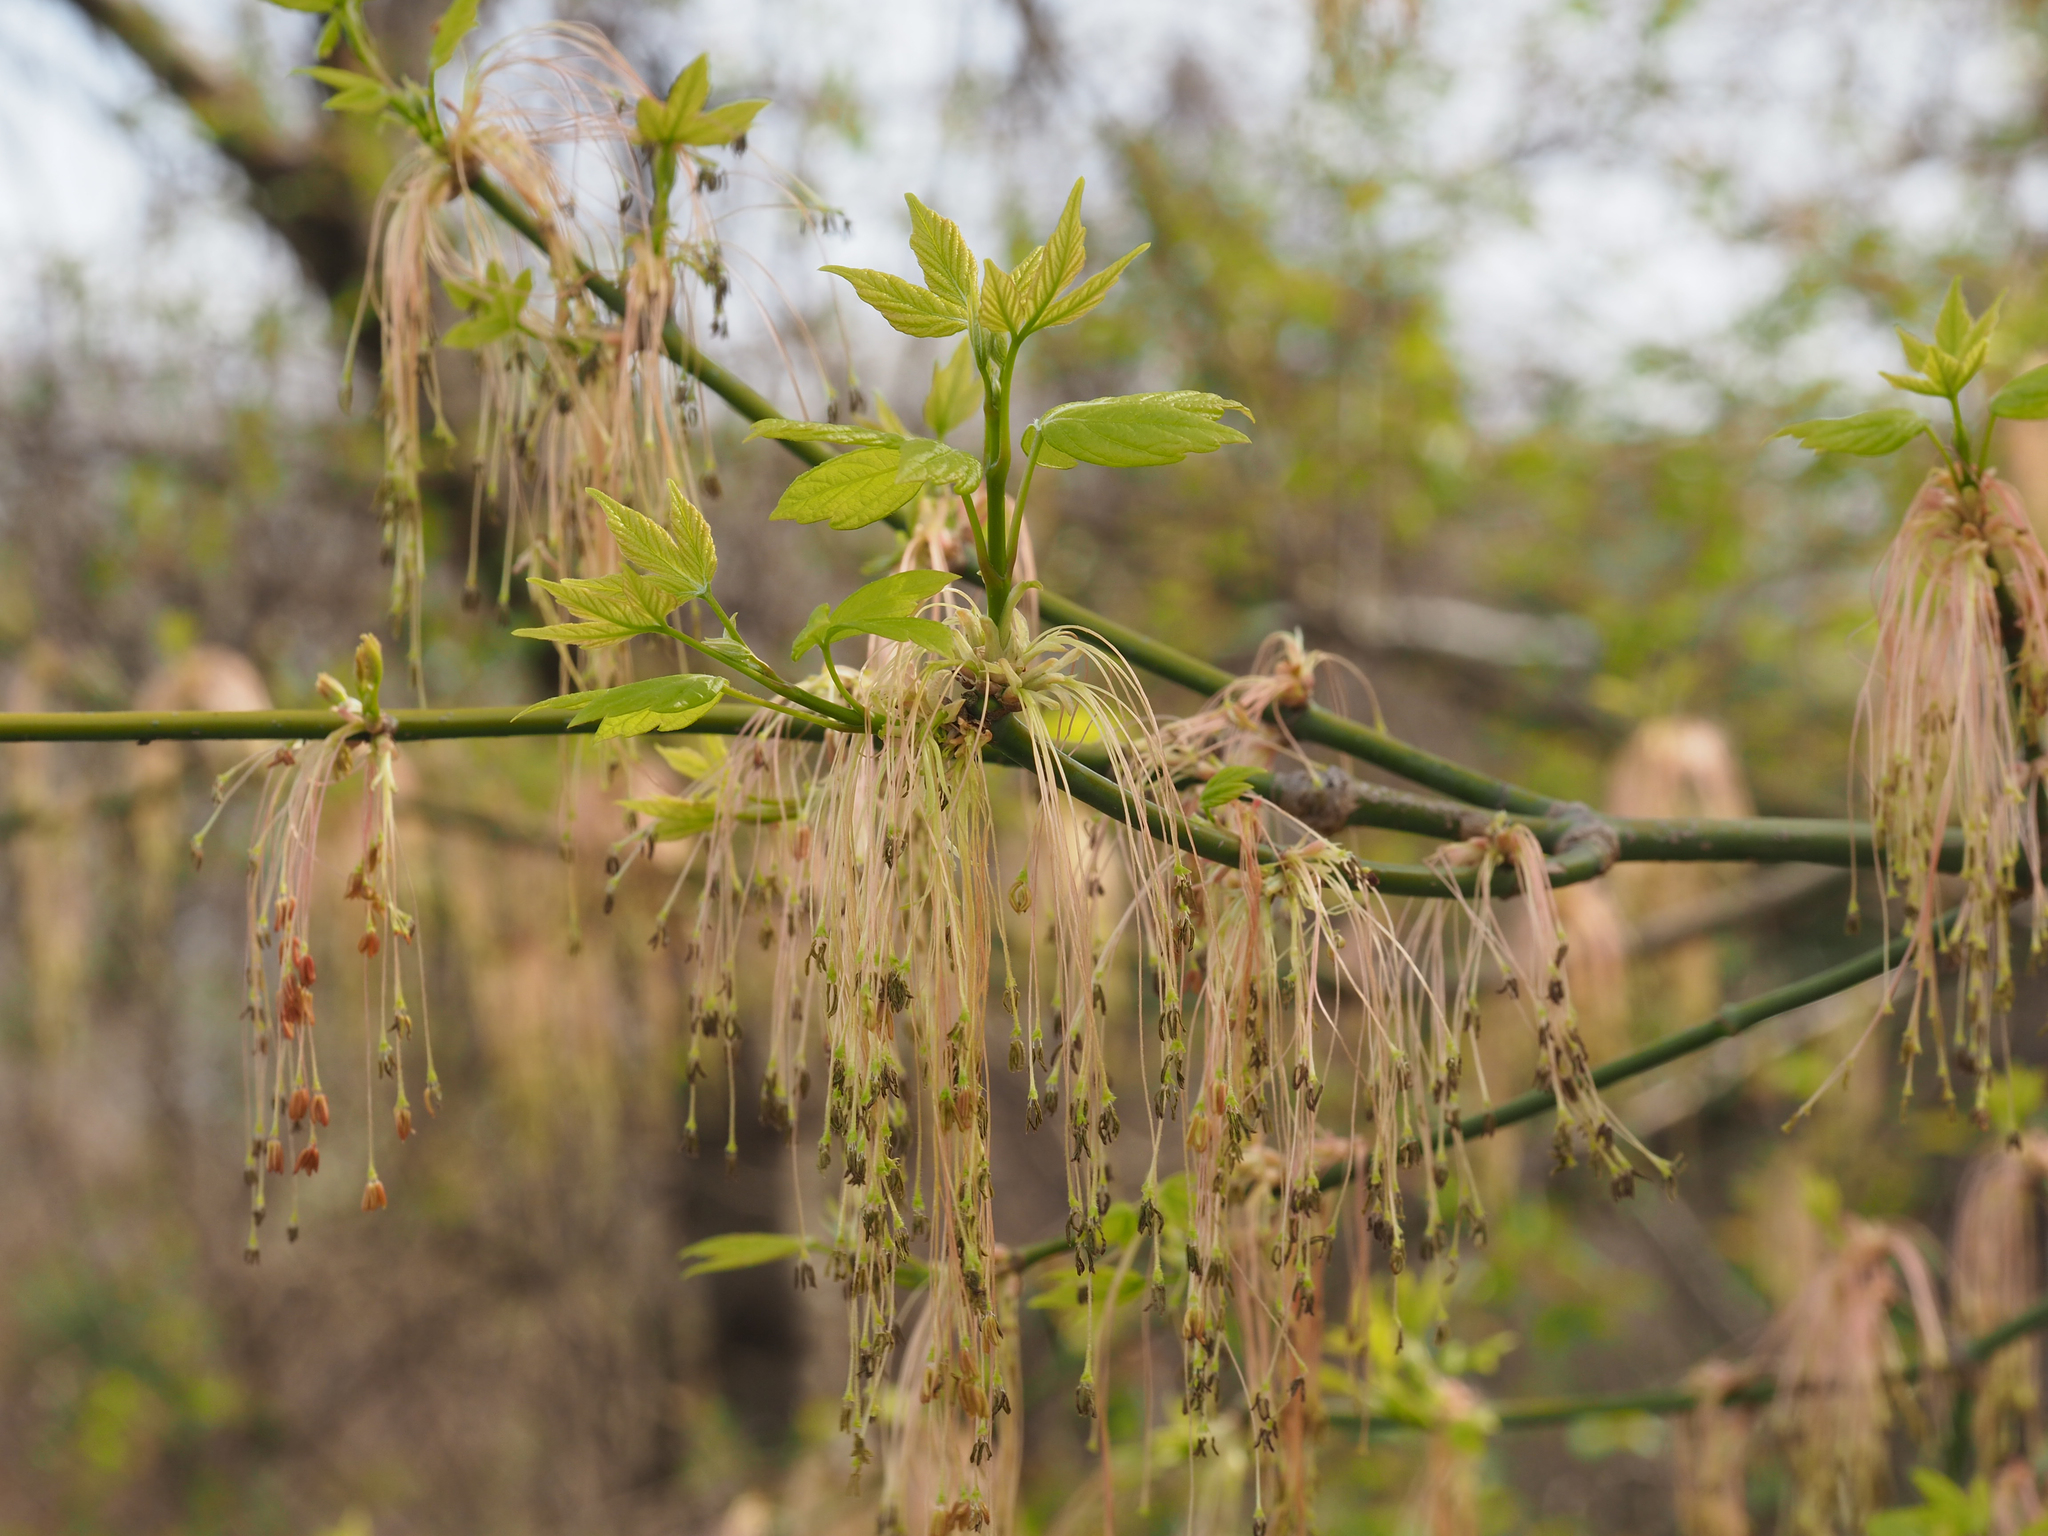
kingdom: Plantae
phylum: Tracheophyta
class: Magnoliopsida
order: Sapindales
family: Sapindaceae
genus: Acer
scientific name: Acer negundo
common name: Ashleaf maple
